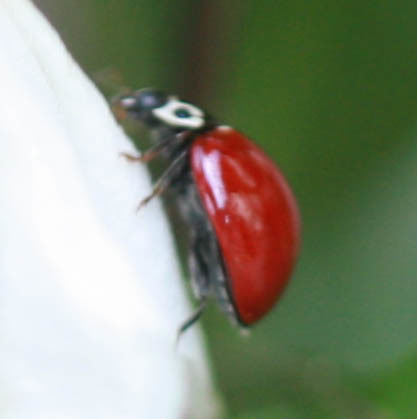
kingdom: Animalia
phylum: Arthropoda
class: Insecta
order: Coleoptera
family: Coccinellidae
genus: Cycloneda
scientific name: Cycloneda polita
